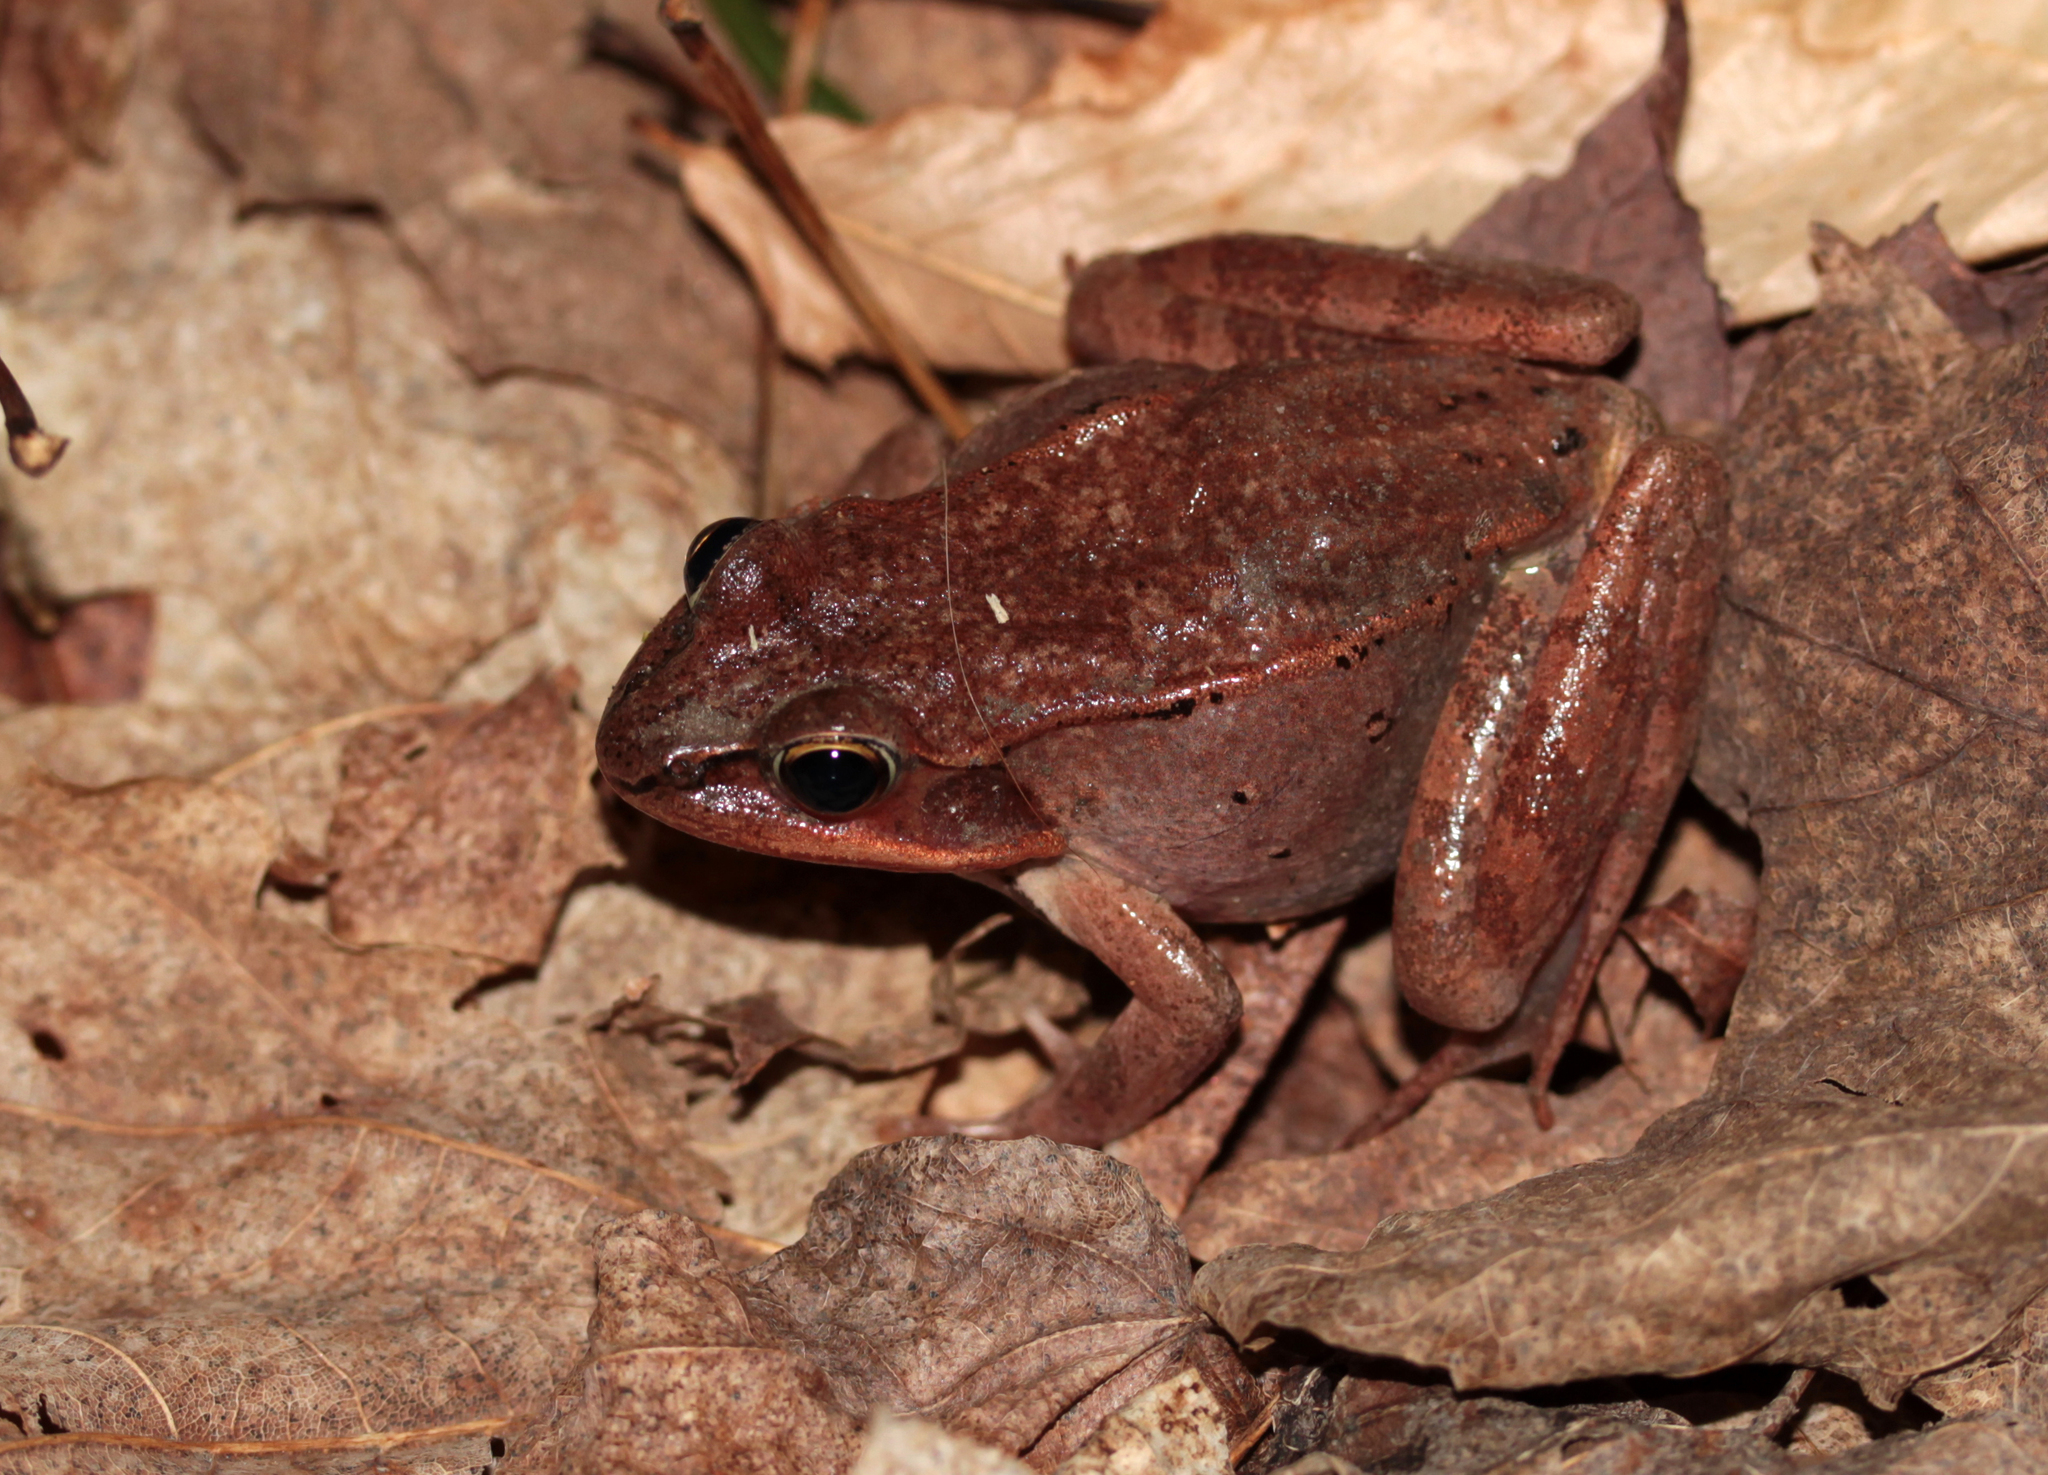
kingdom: Animalia
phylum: Chordata
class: Amphibia
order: Anura
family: Ranidae
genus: Lithobates
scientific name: Lithobates sylvaticus
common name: Wood frog
